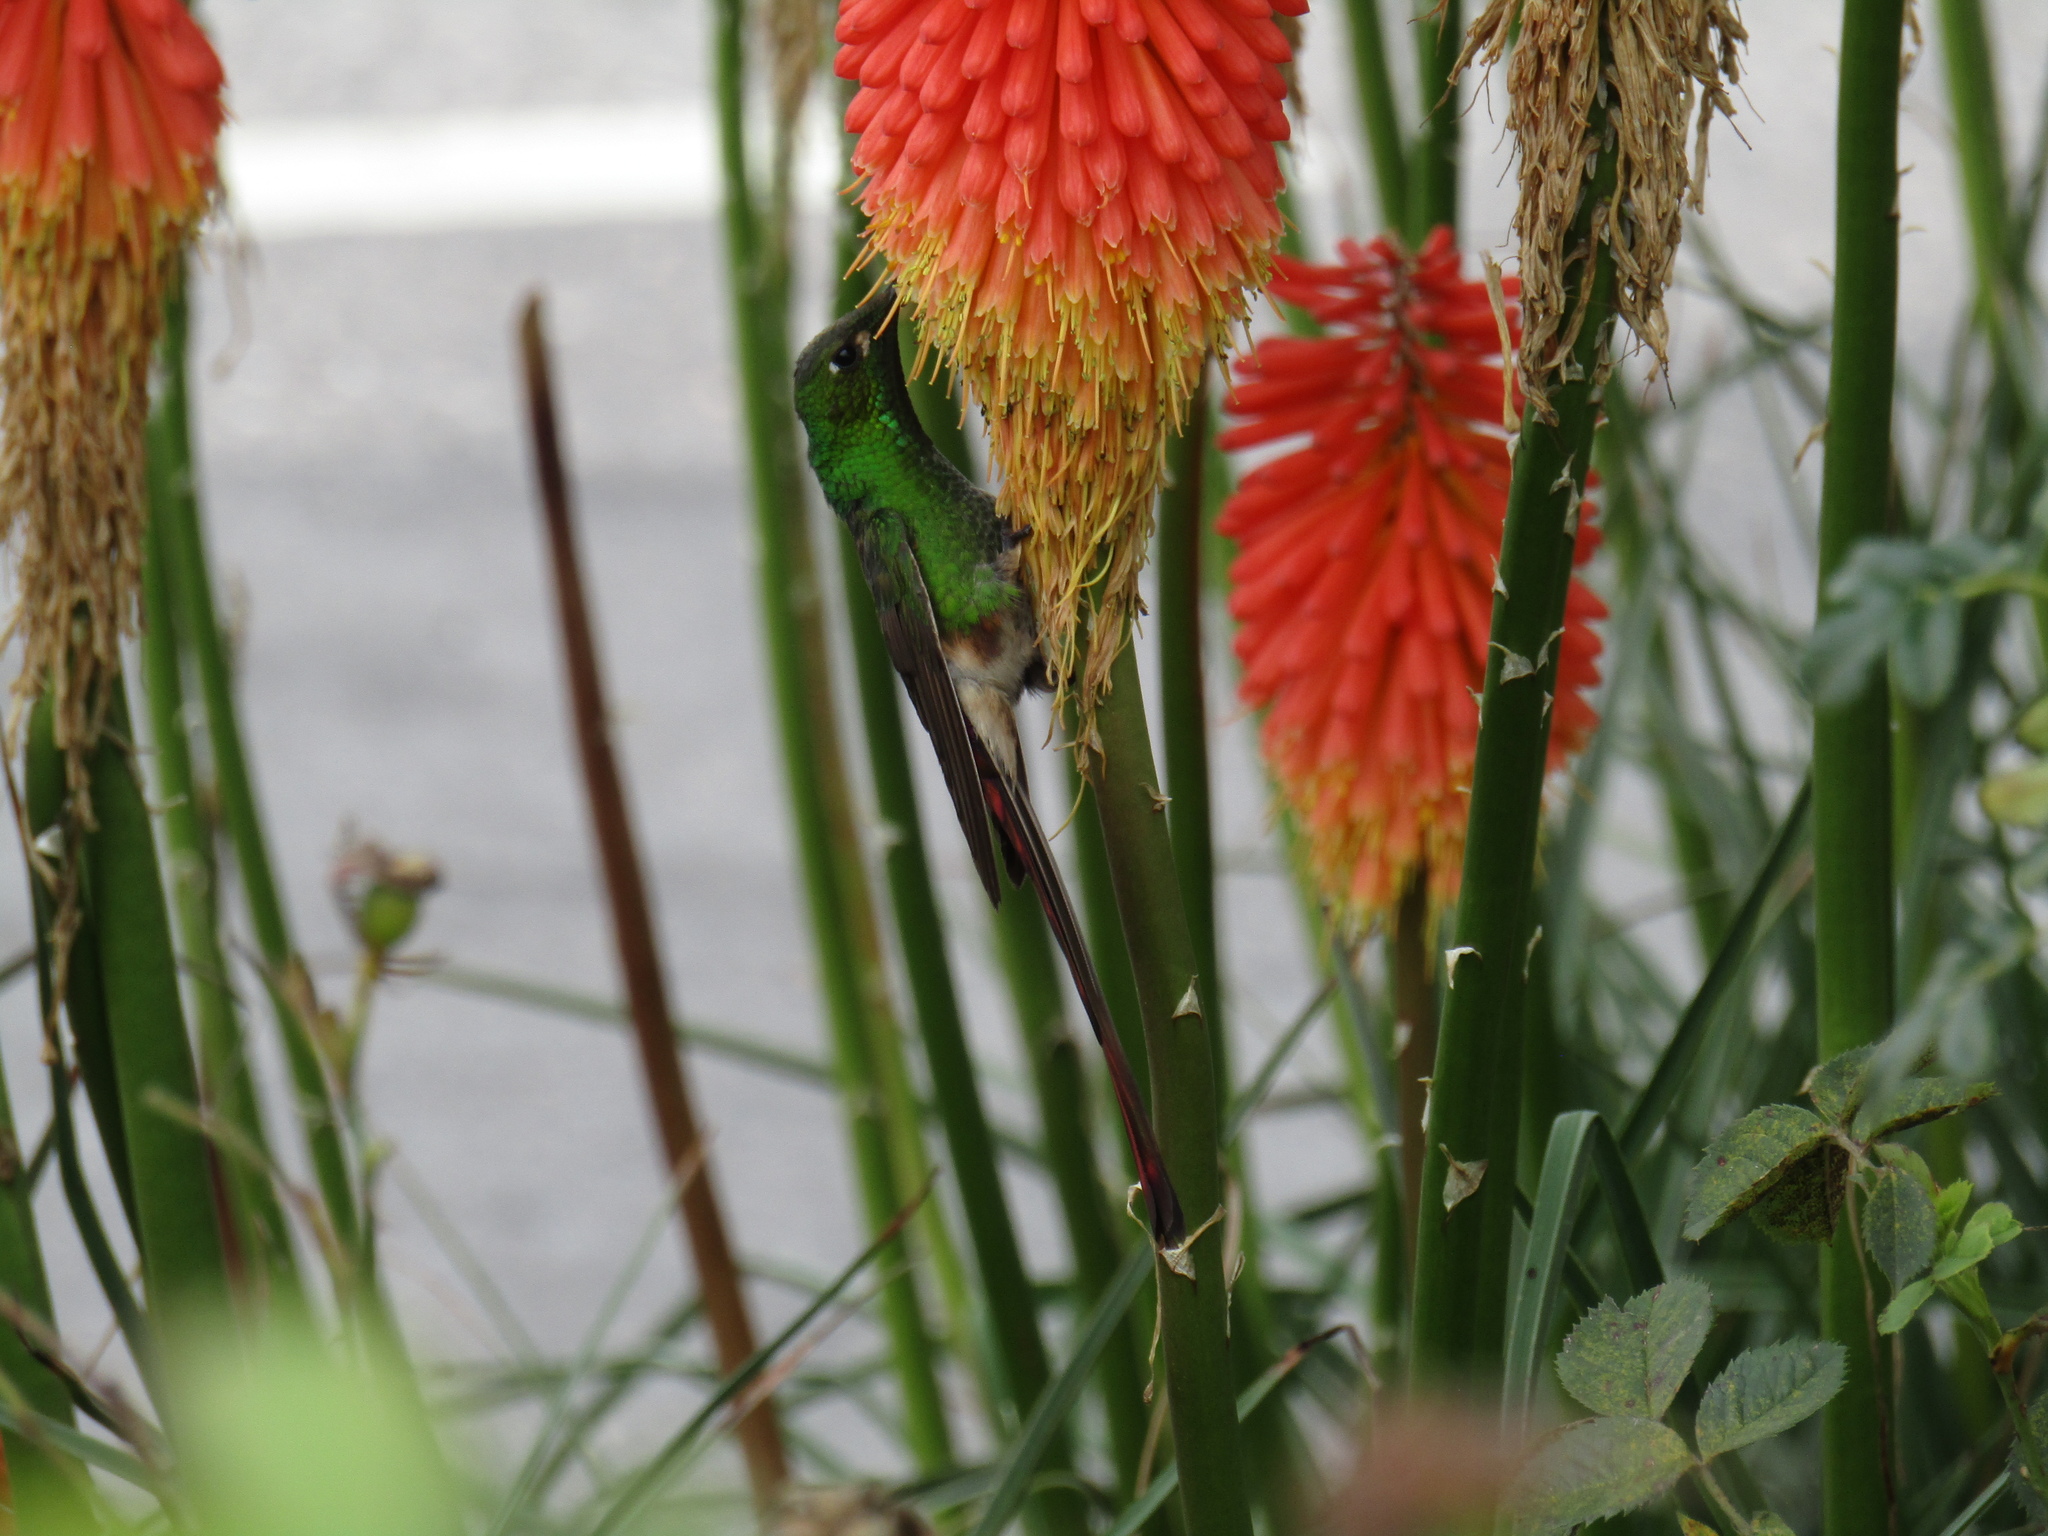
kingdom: Animalia
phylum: Chordata
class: Aves
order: Apodiformes
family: Trochilidae
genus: Sappho
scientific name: Sappho sparganurus
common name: Red-tailed comet
